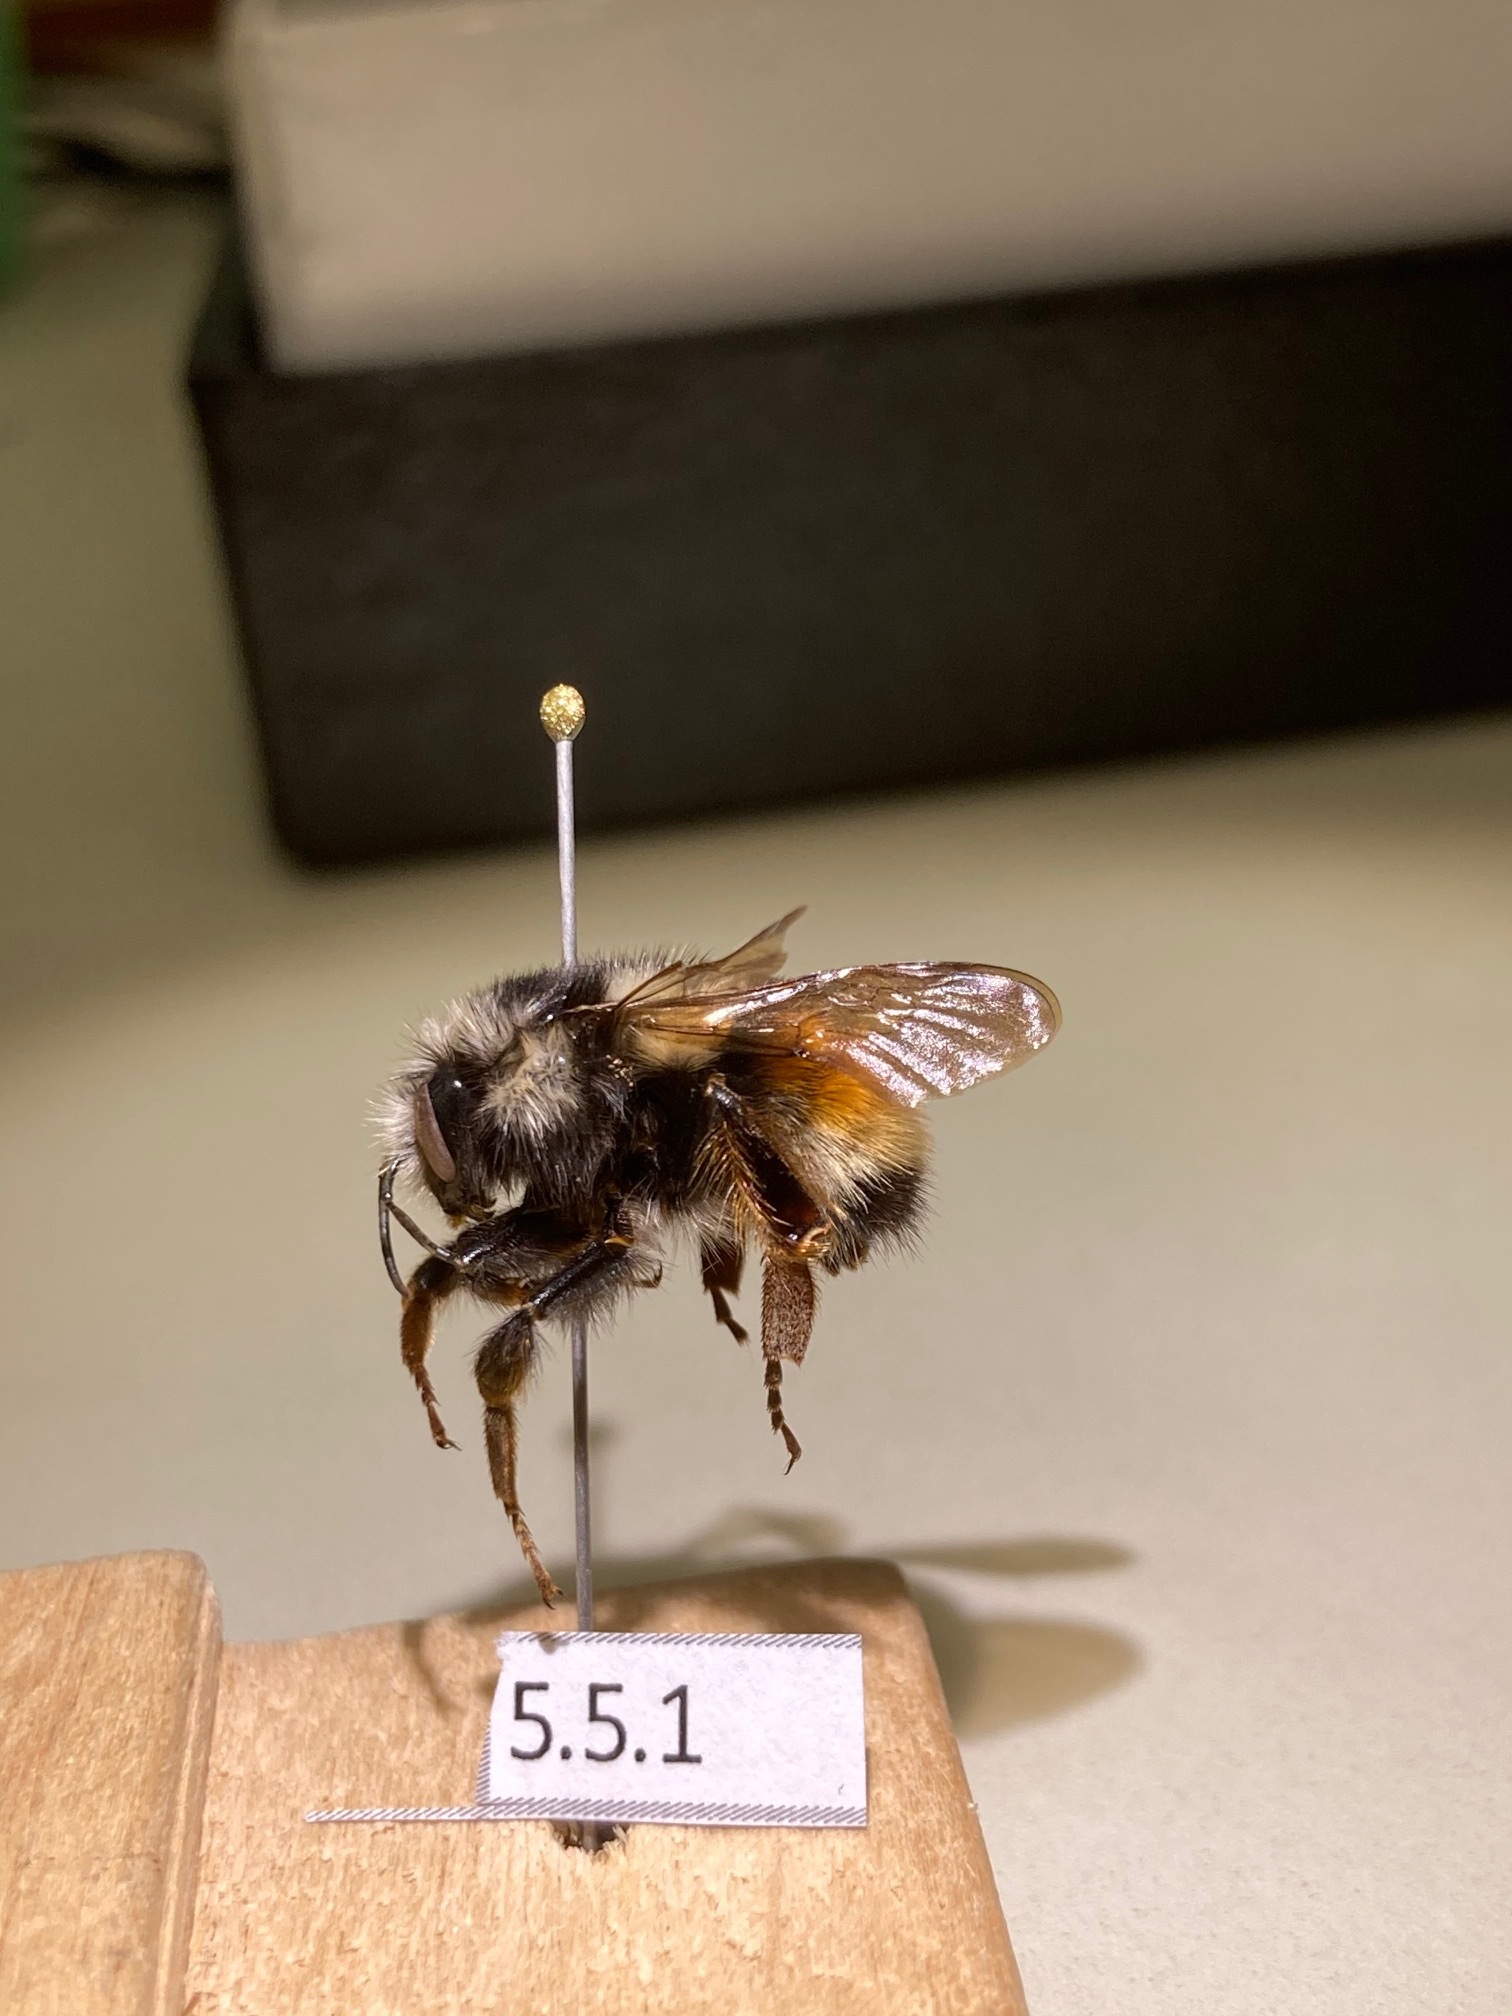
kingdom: Animalia
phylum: Arthropoda
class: Insecta
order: Hymenoptera
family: Apidae
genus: Bombus
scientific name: Bombus vancouverensis
